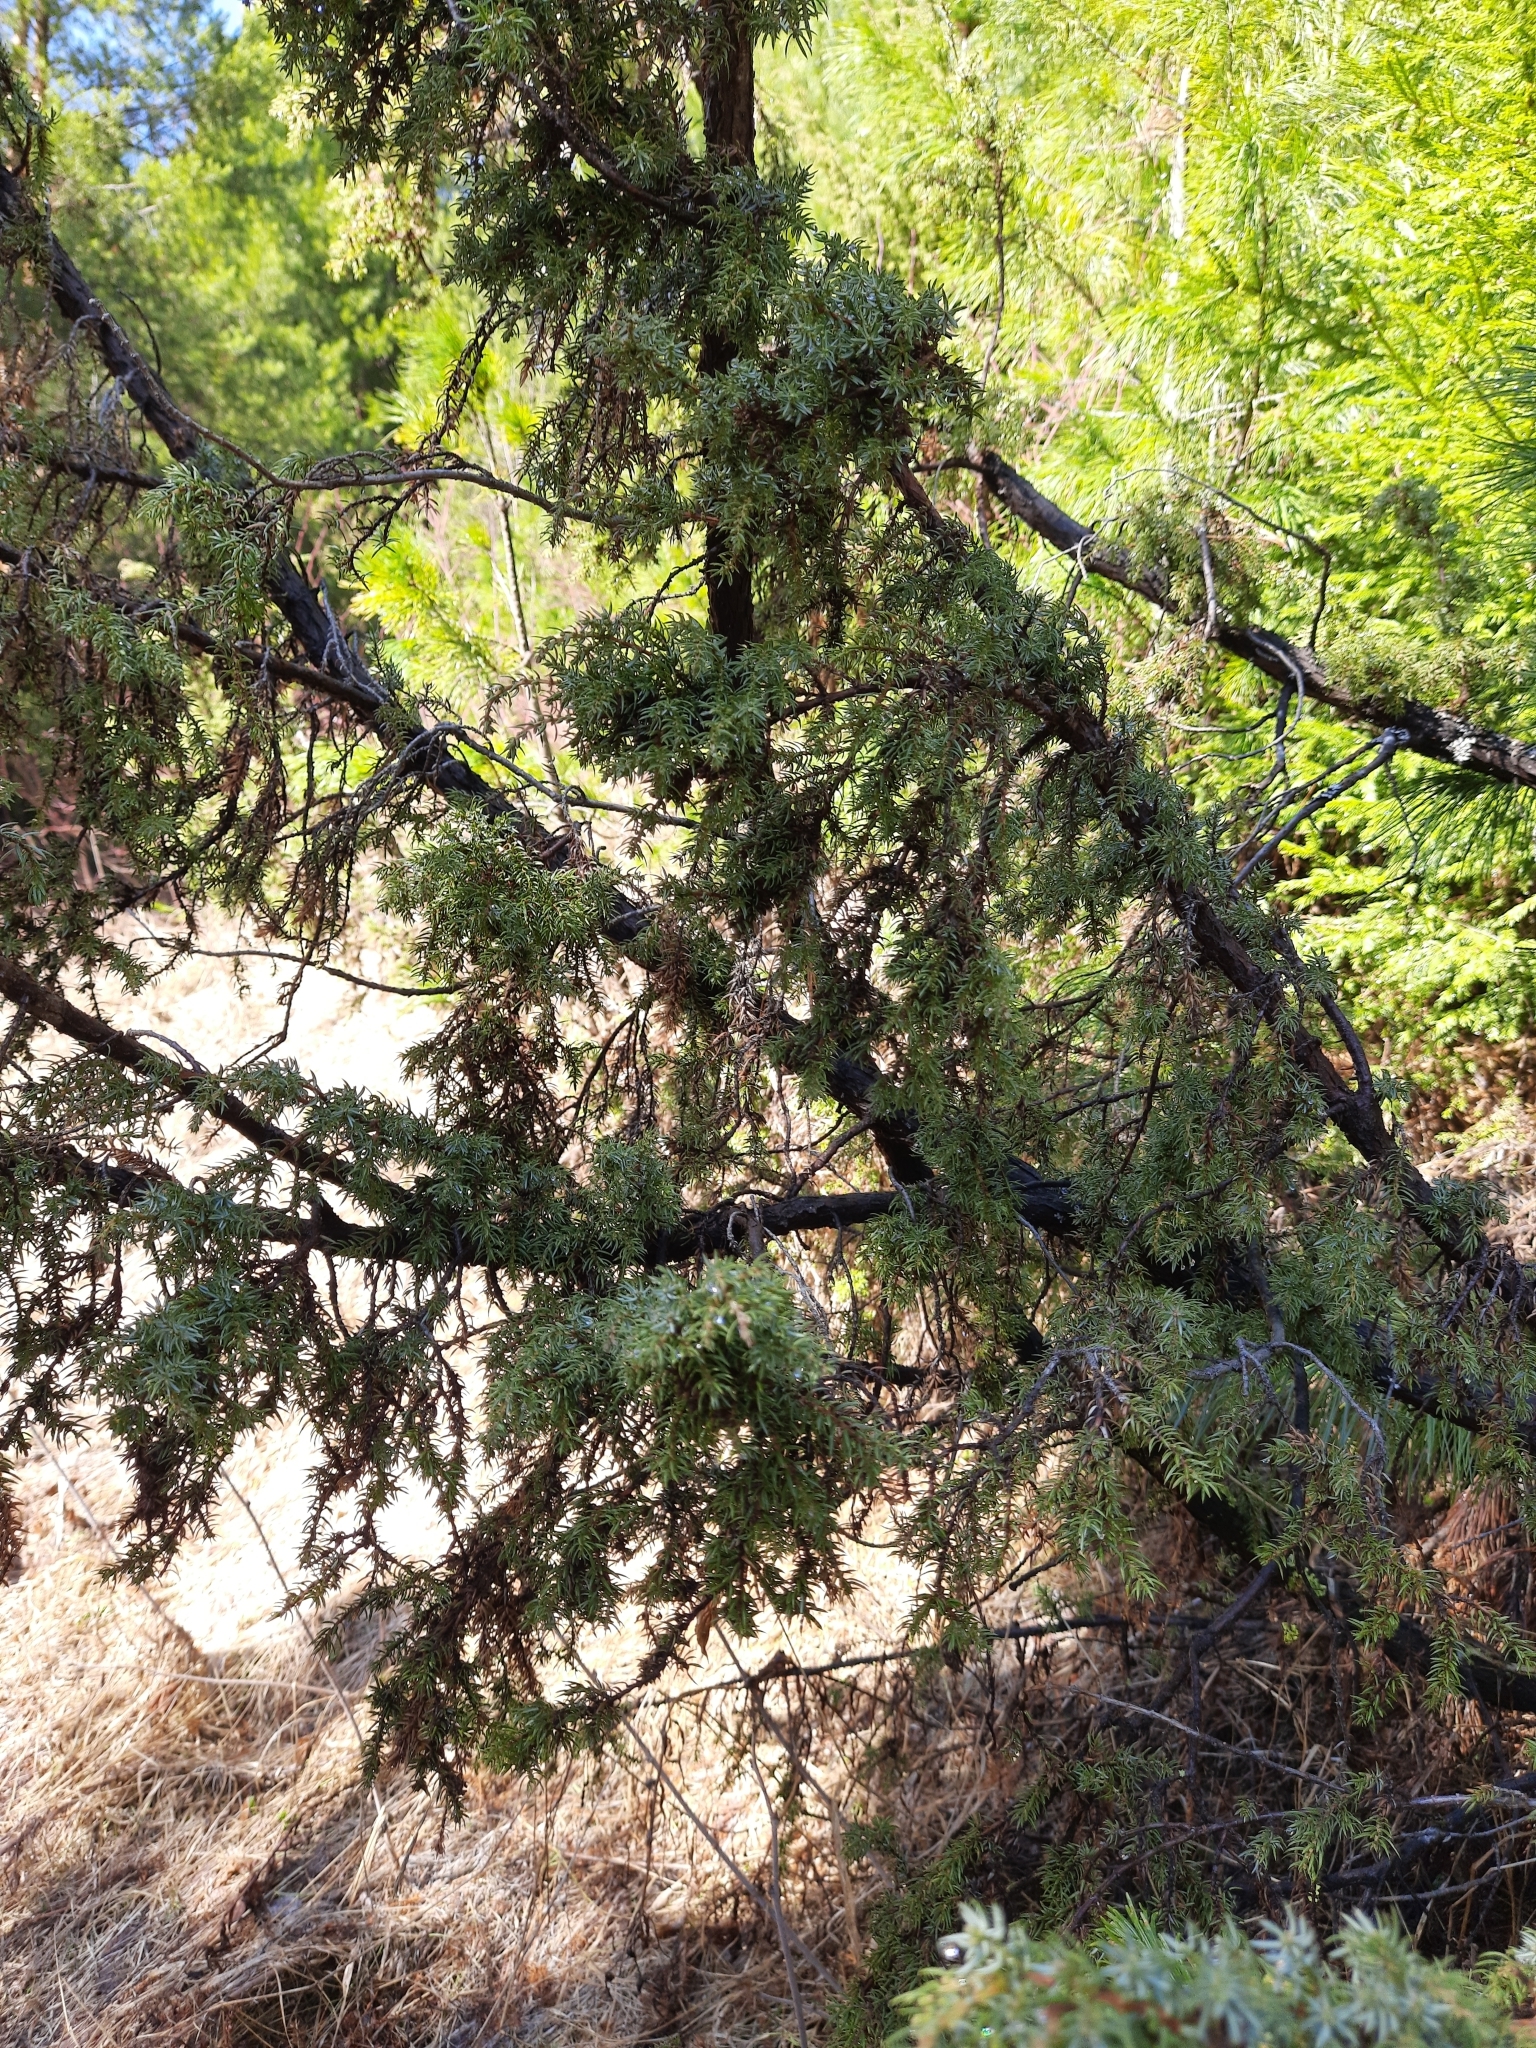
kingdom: Plantae
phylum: Tracheophyta
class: Pinopsida
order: Pinales
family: Cupressaceae
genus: Juniperus
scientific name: Juniperus communis
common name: Common juniper
